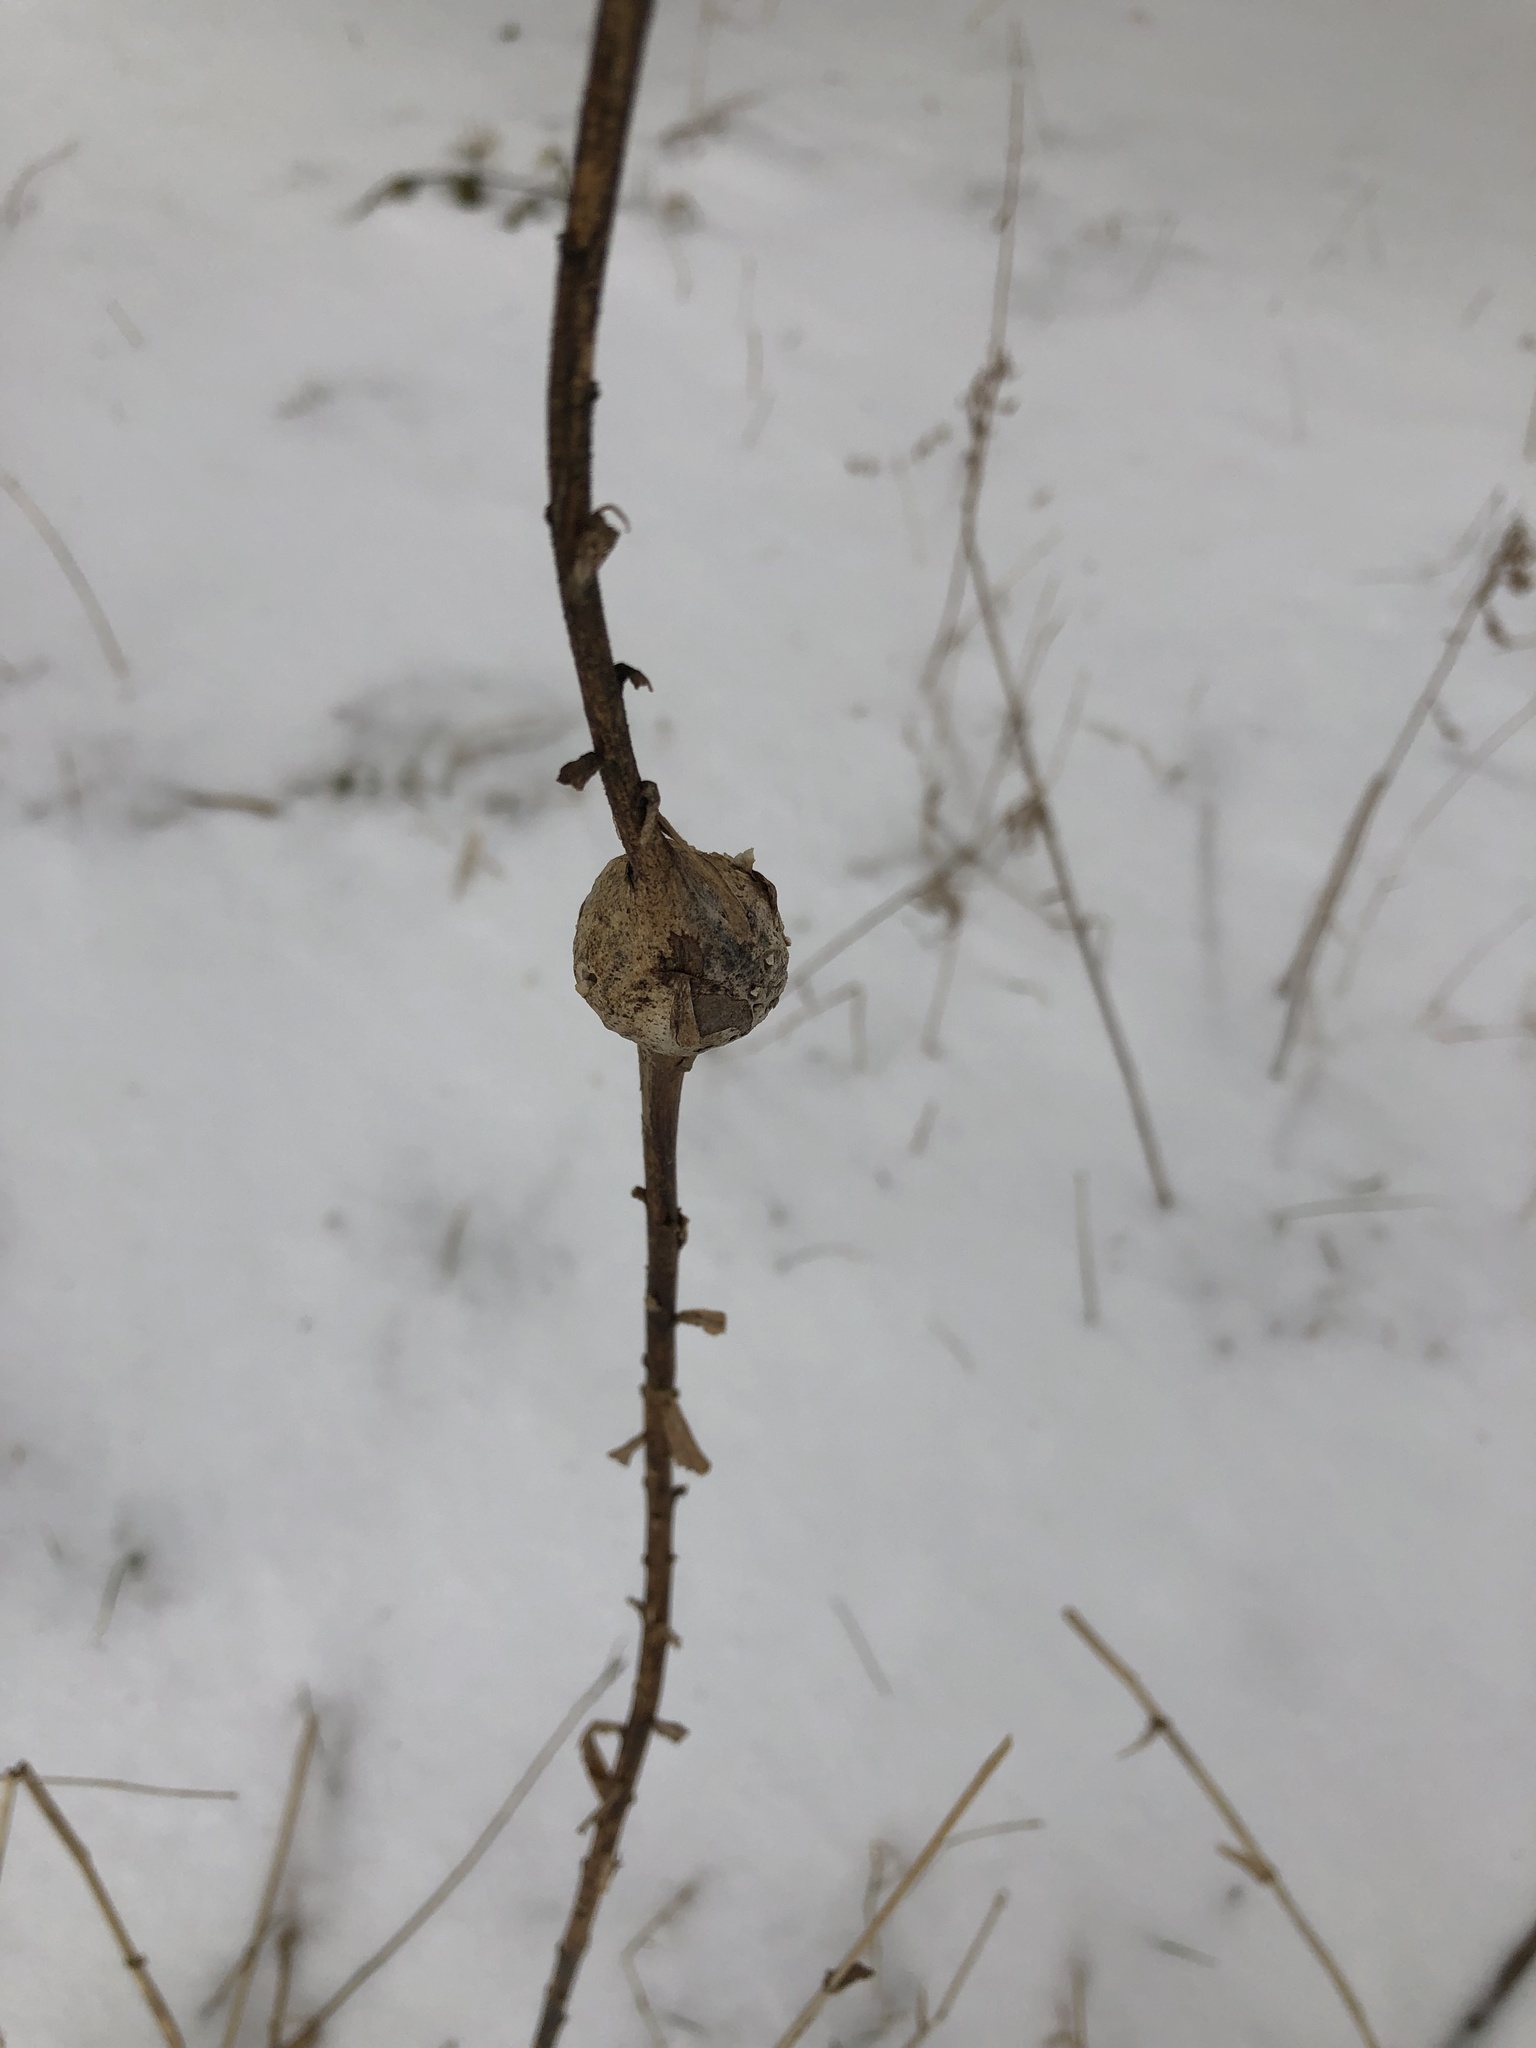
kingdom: Animalia
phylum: Arthropoda
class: Insecta
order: Diptera
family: Tephritidae
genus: Eurosta
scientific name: Eurosta solidaginis
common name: Goldenrod gall fly
